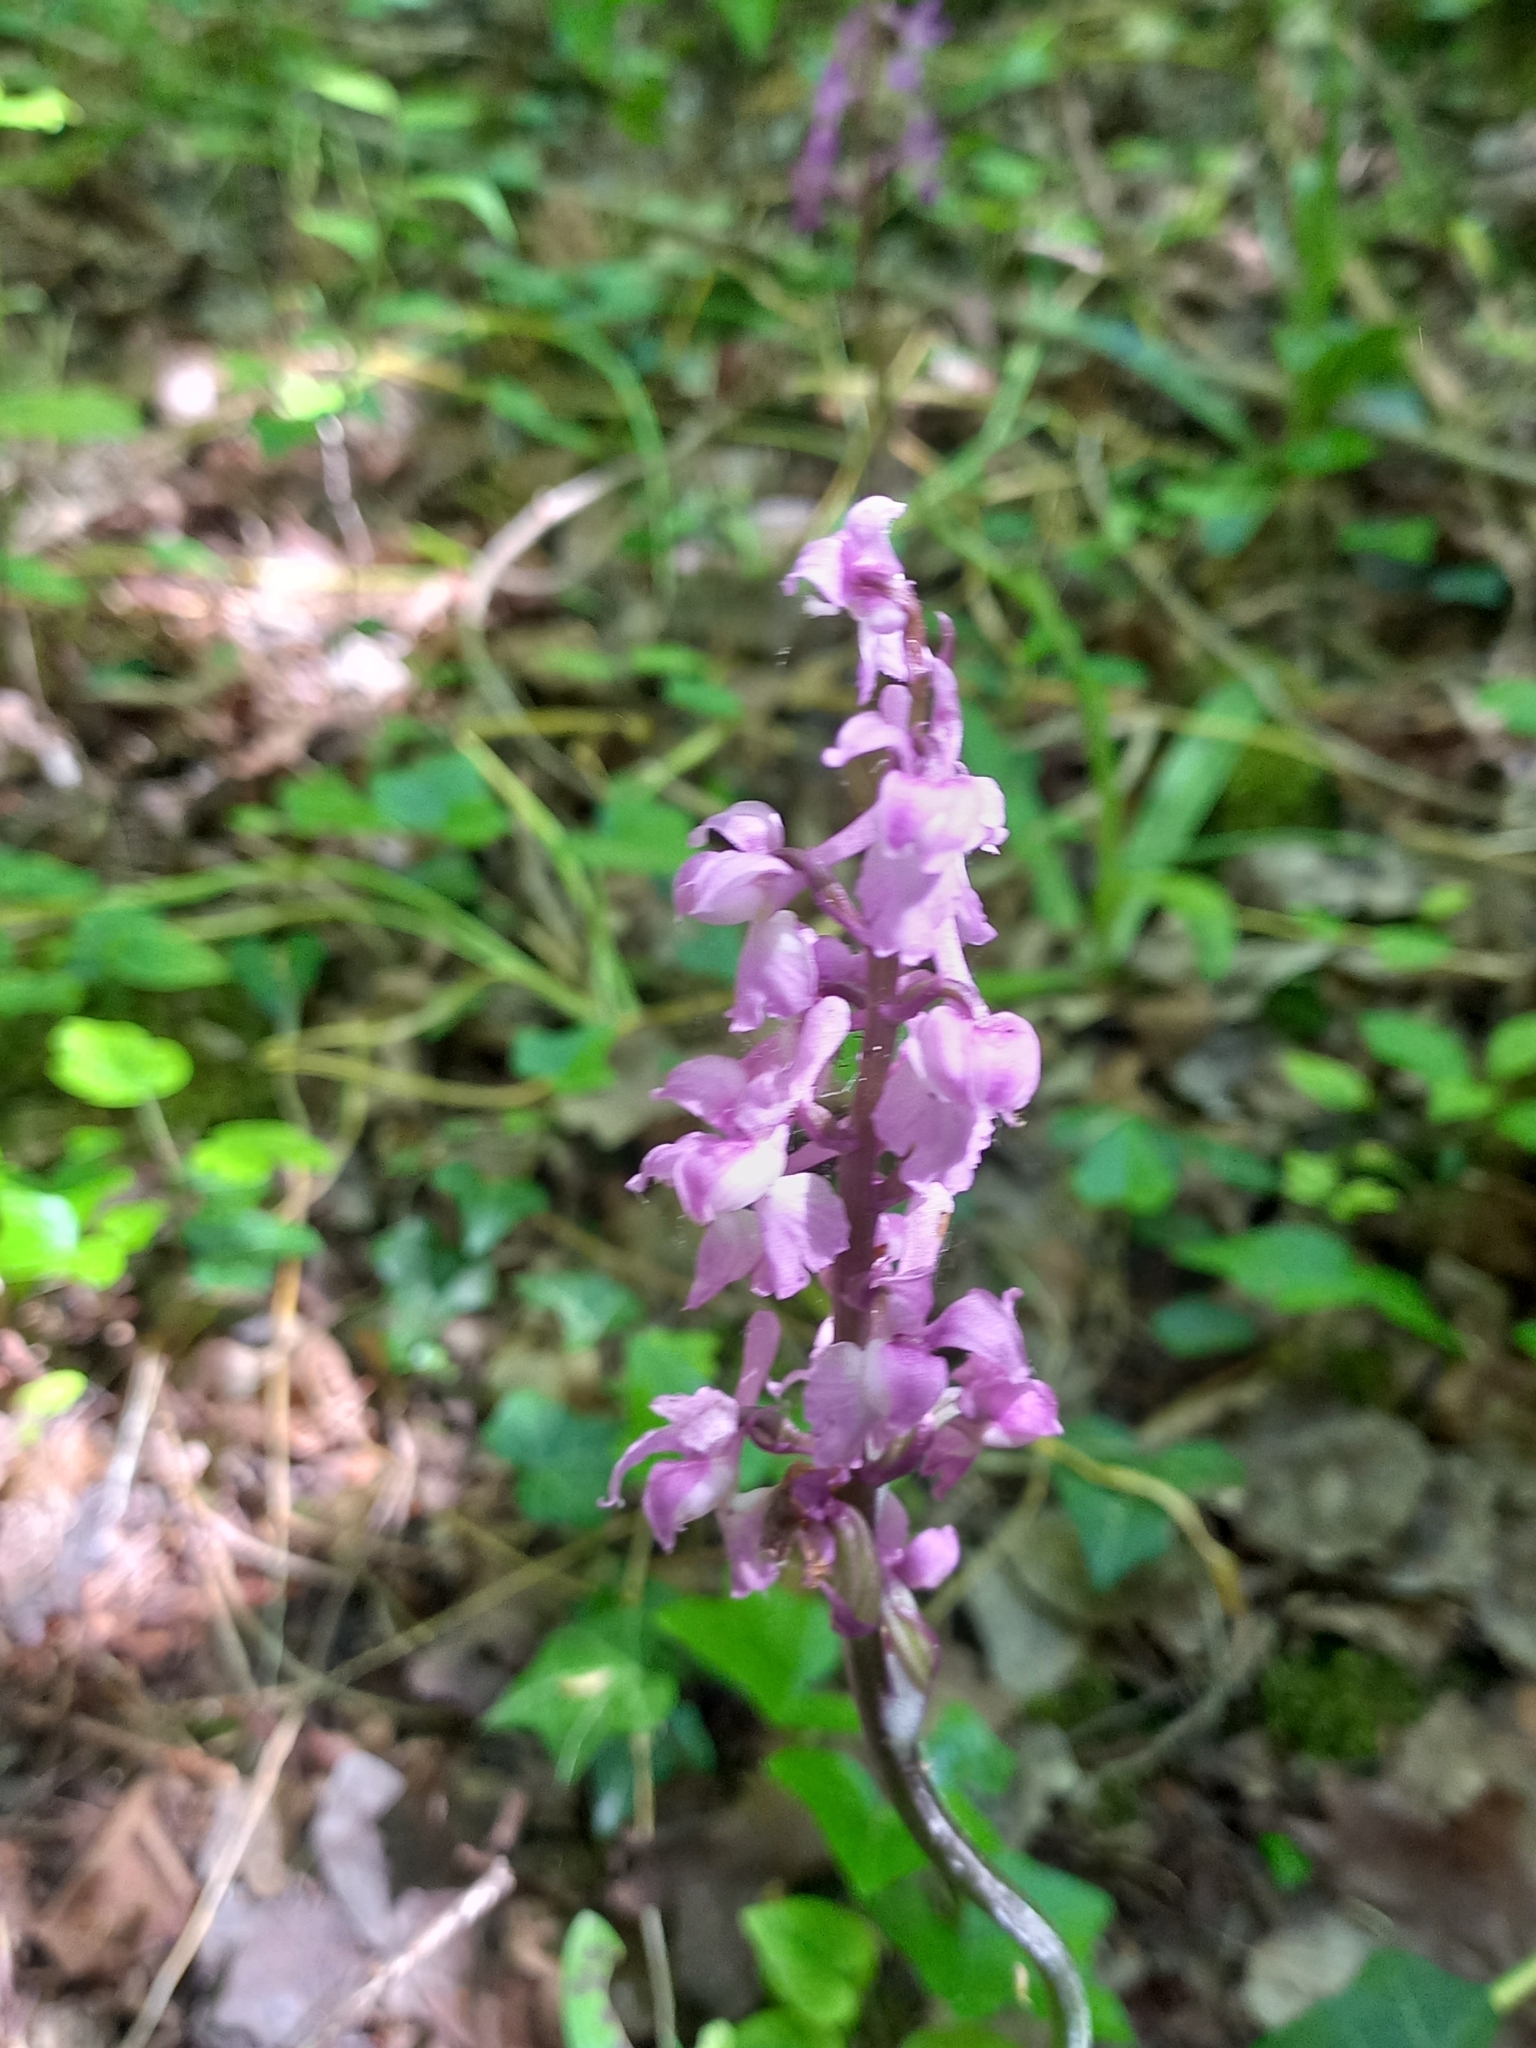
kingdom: Plantae
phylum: Tracheophyta
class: Liliopsida
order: Asparagales
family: Orchidaceae
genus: Orchis
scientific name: Orchis mascula
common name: Early-purple orchid
